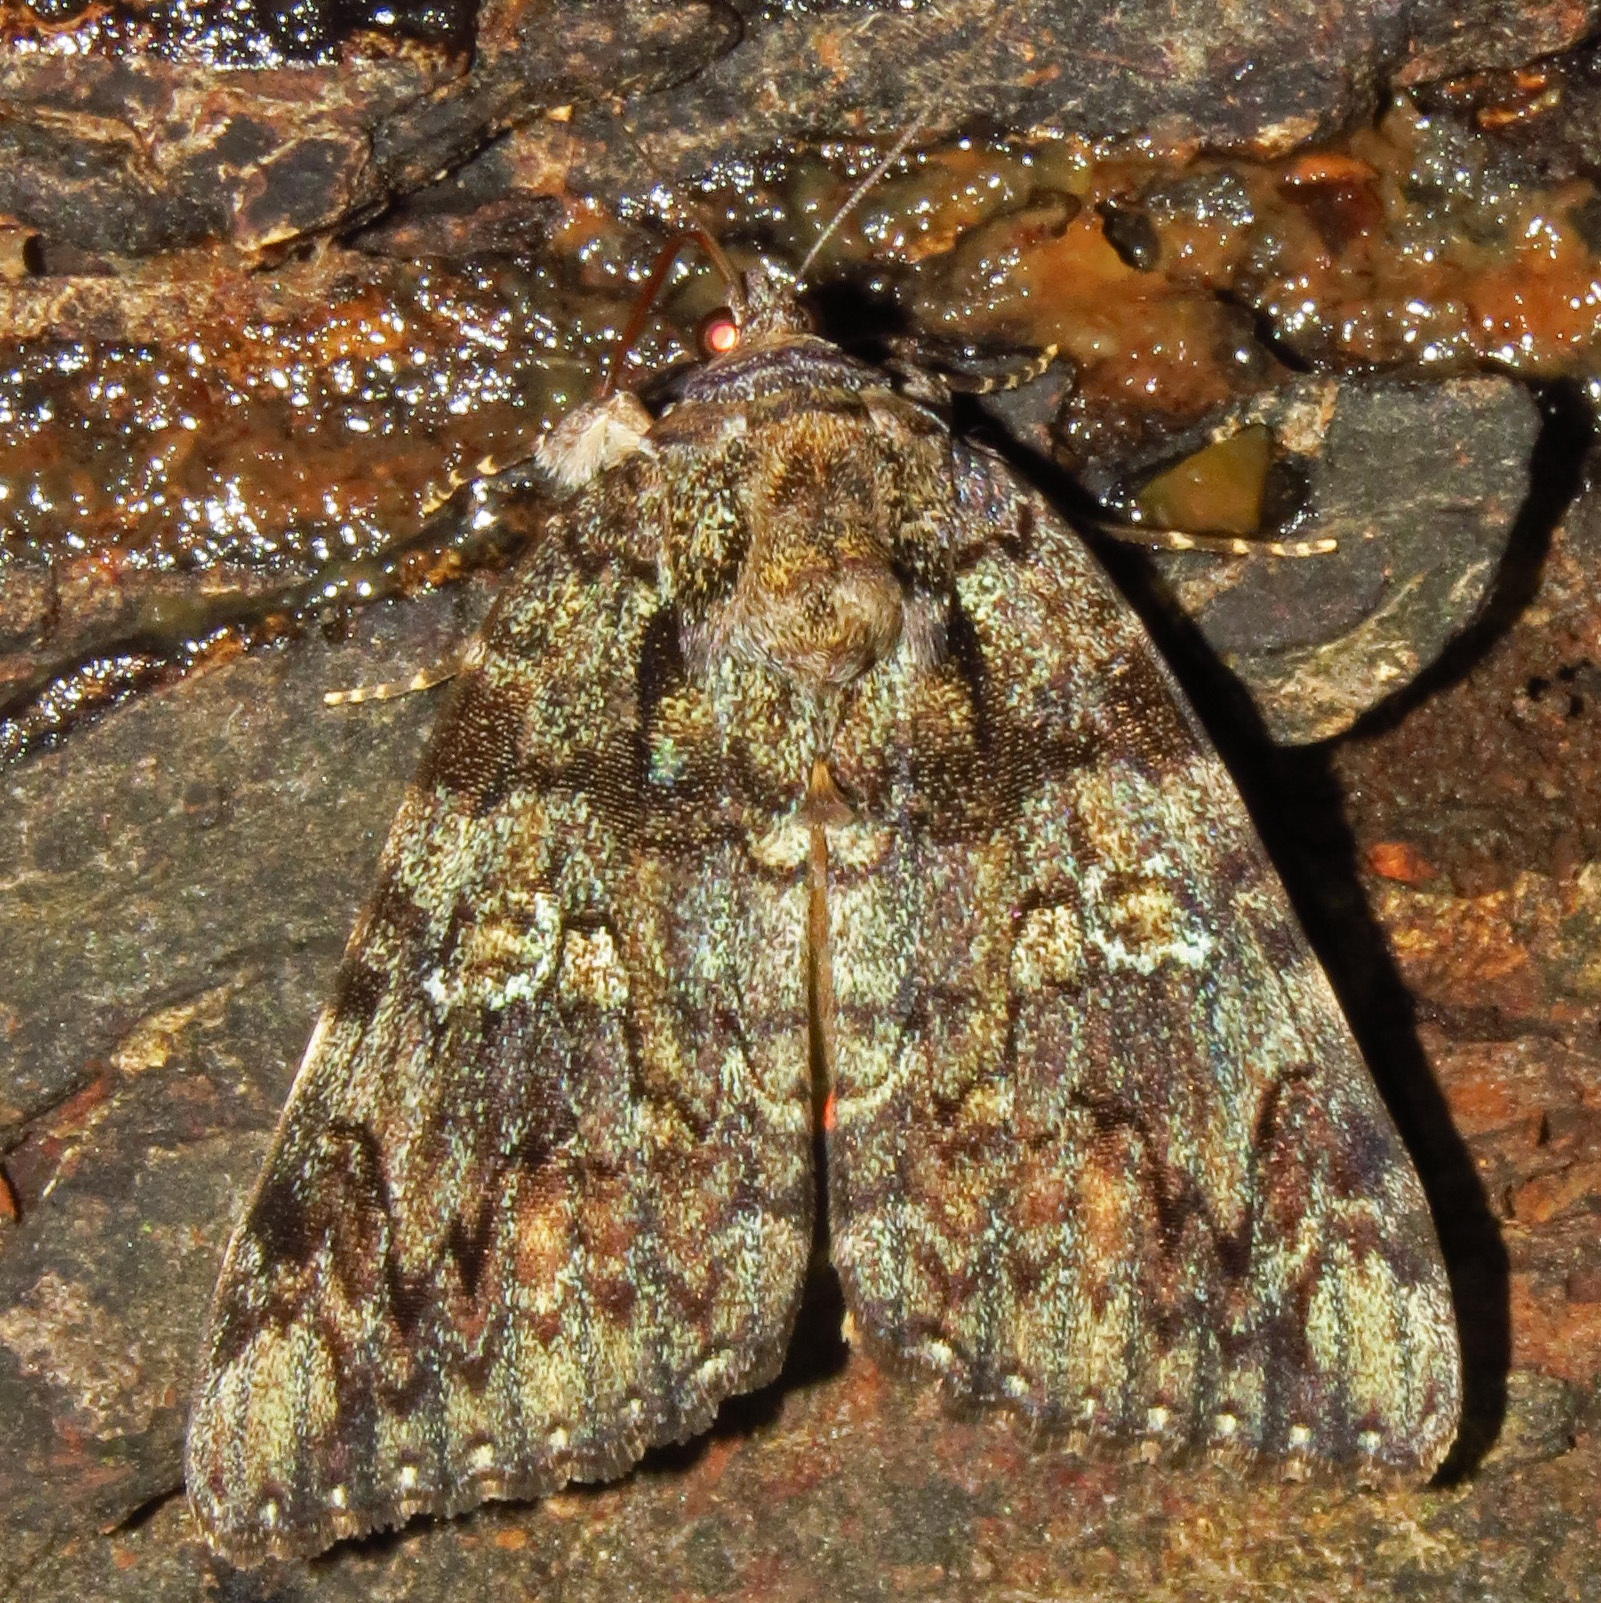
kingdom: Animalia
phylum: Arthropoda
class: Insecta
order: Lepidoptera
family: Erebidae
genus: Catocala
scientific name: Catocala ilia
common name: Ilia underwing
